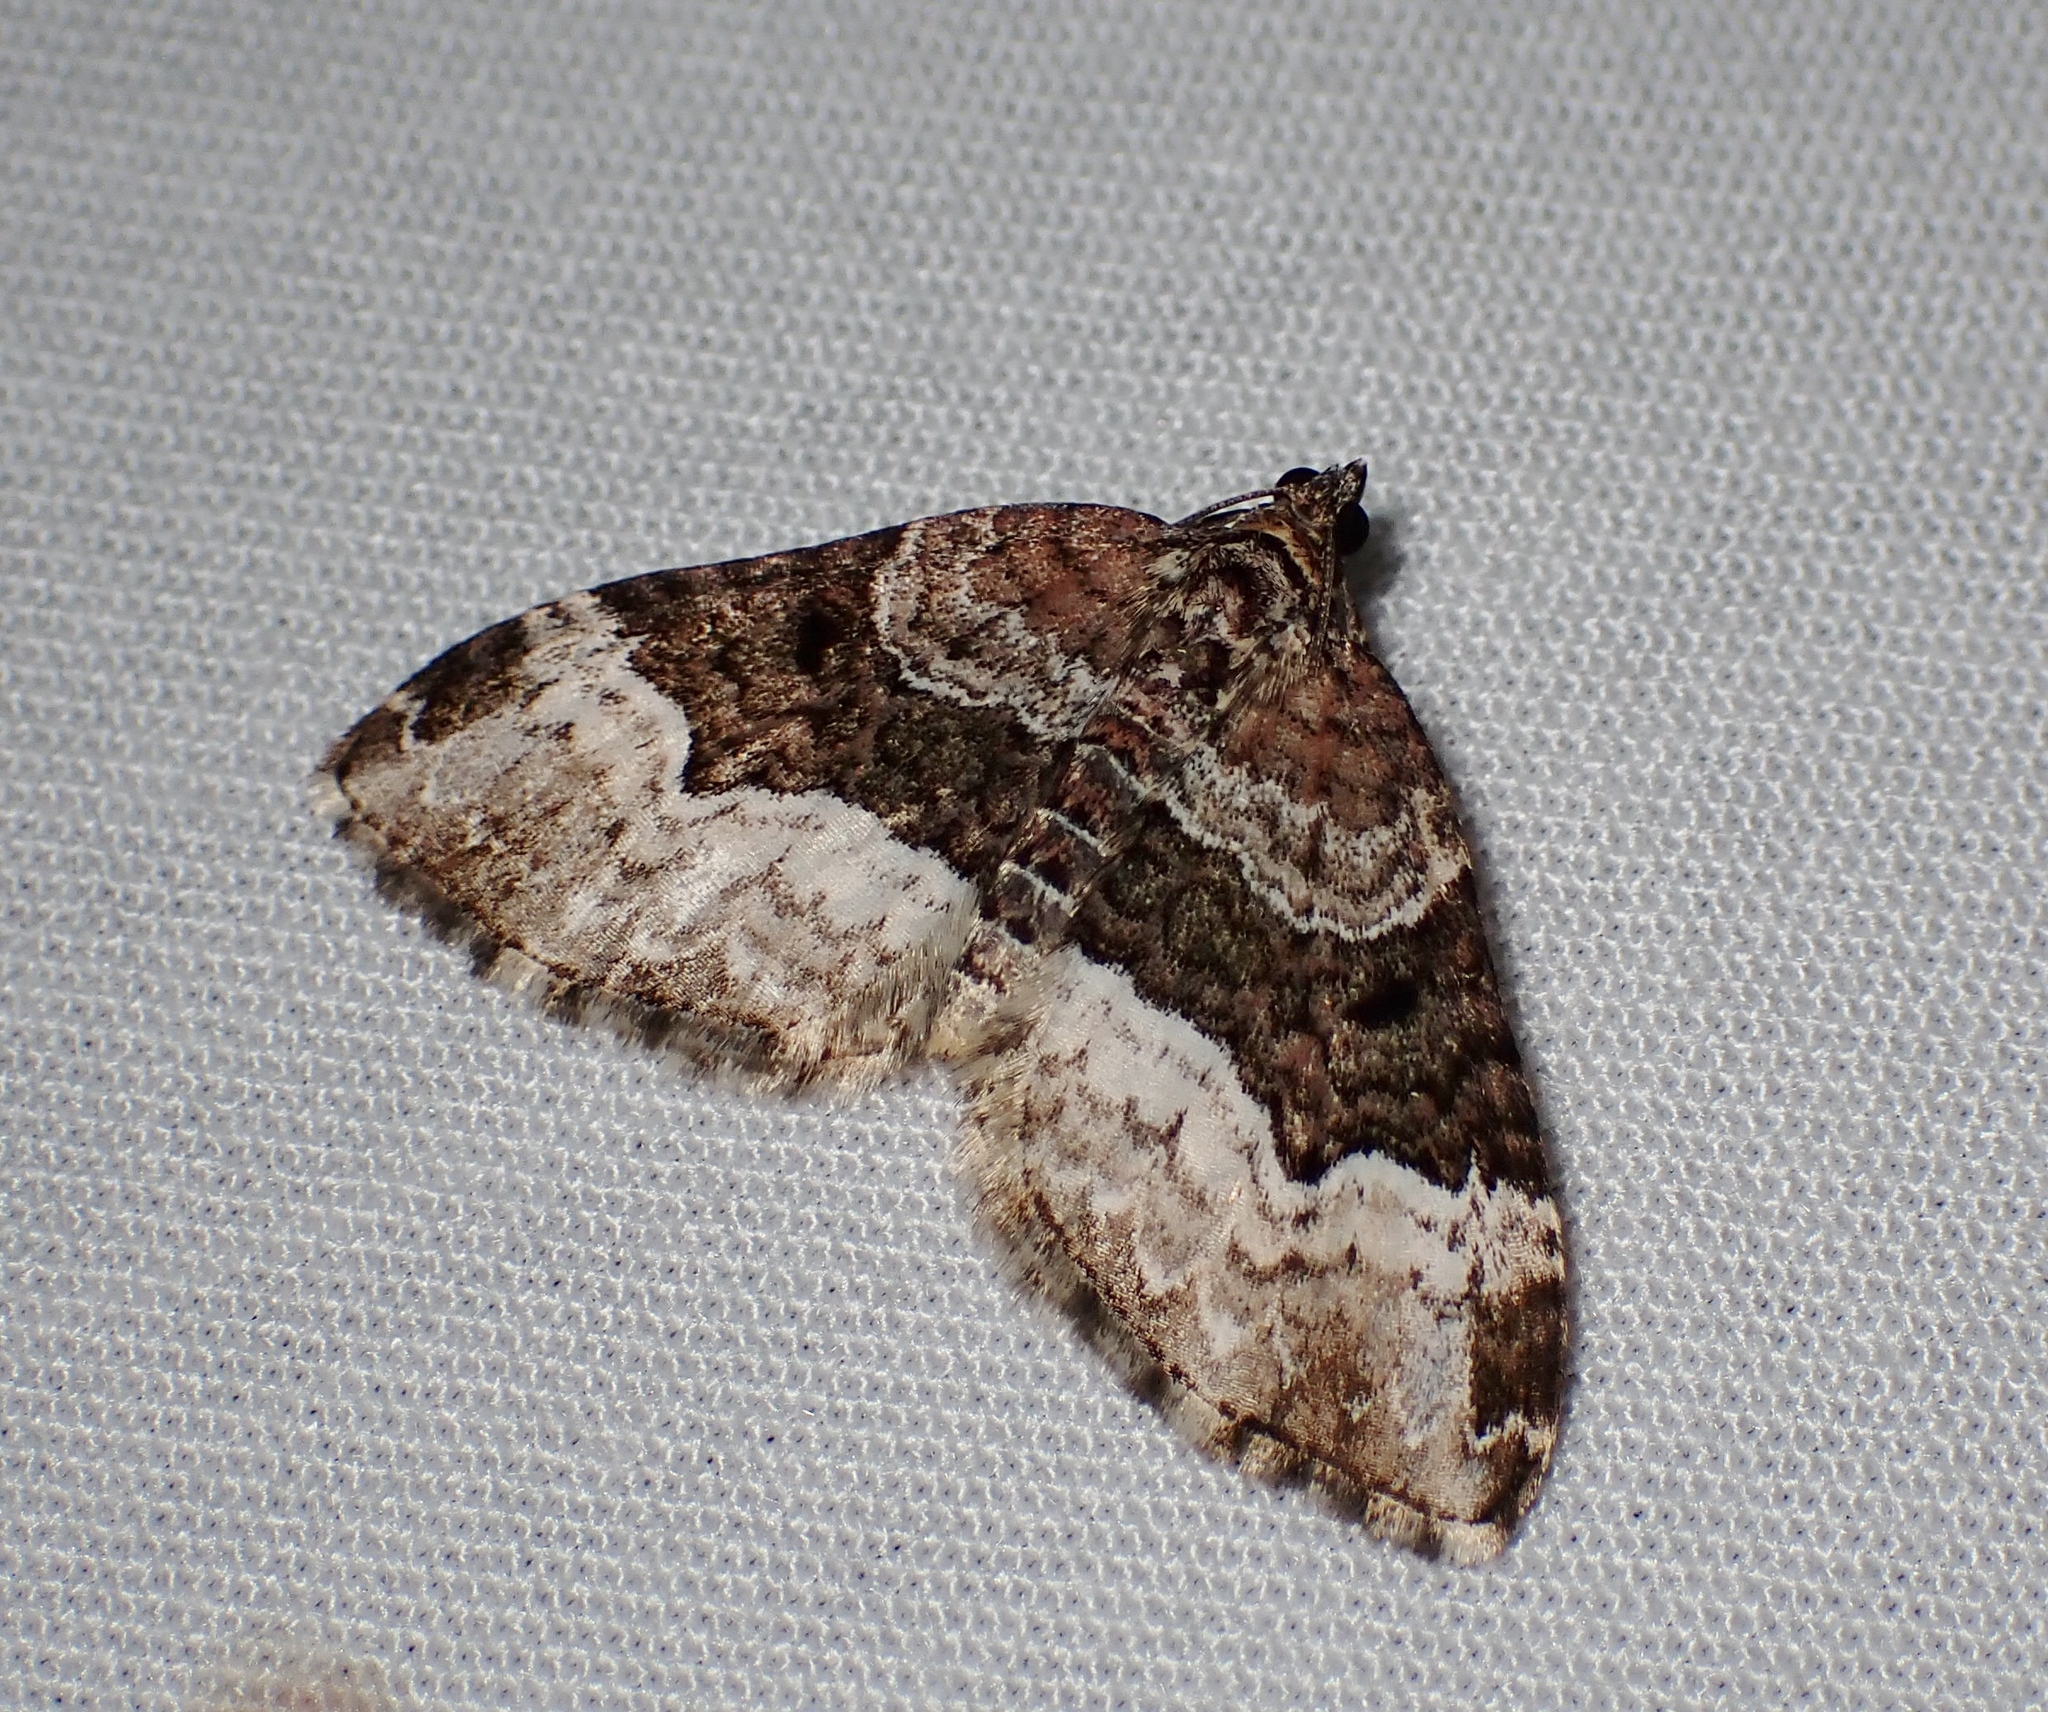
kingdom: Animalia
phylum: Arthropoda
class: Insecta
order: Lepidoptera
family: Geometridae
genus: Euphyia
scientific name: Euphyia intermediata
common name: Sharp-angled carpet
